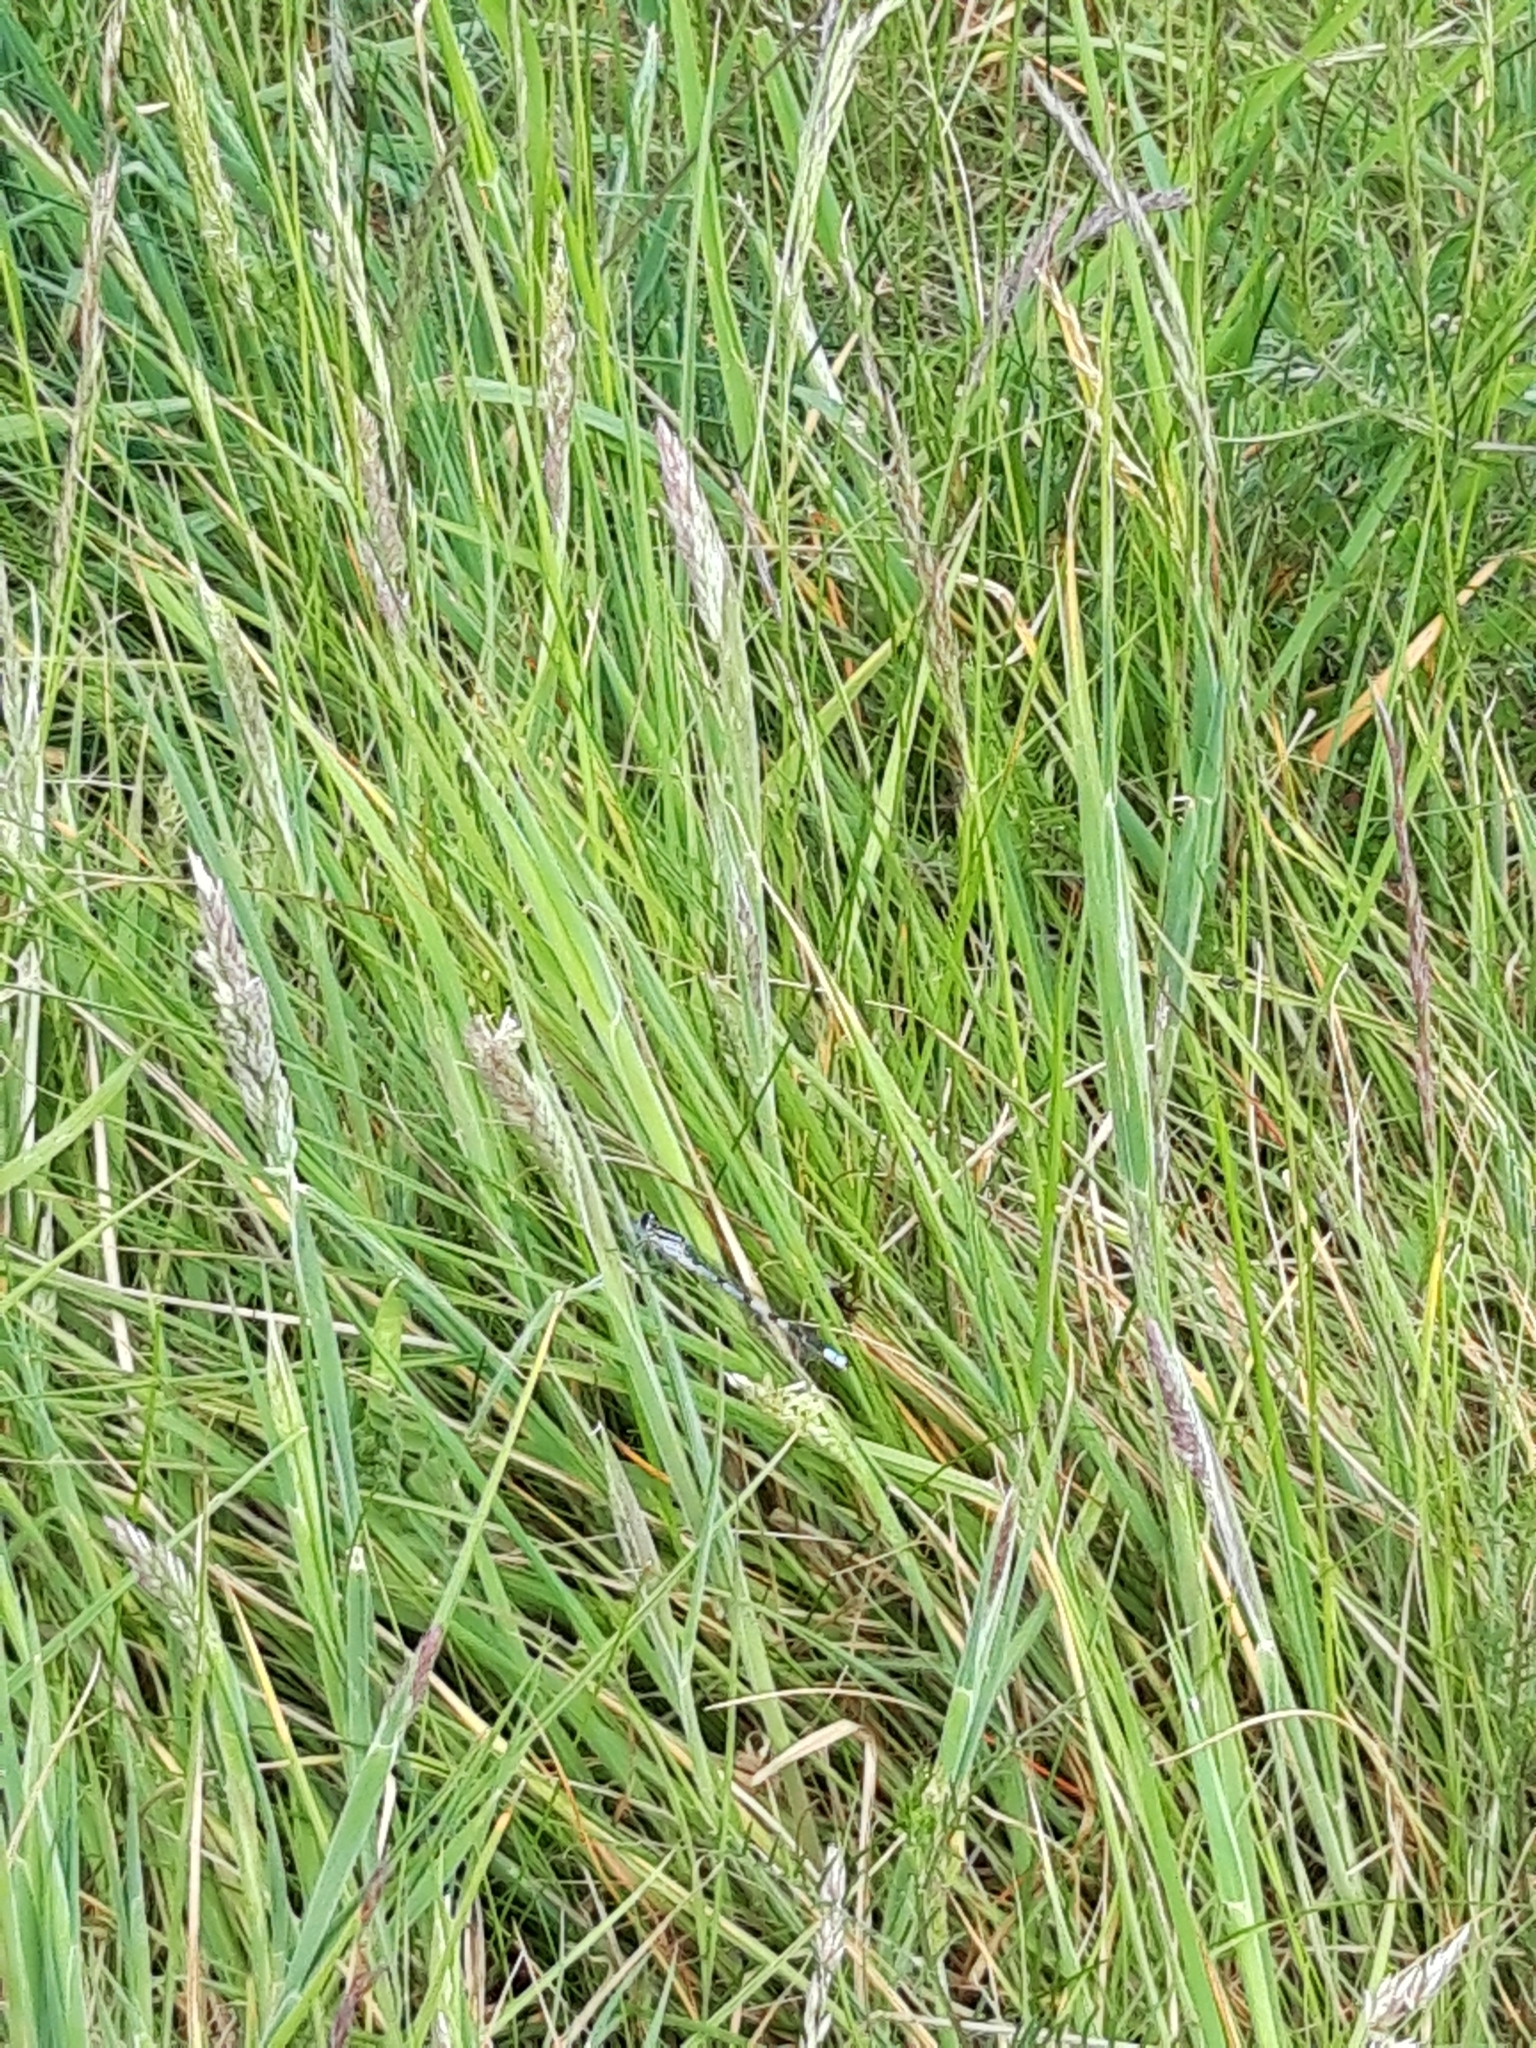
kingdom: Animalia
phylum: Arthropoda
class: Insecta
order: Odonata
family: Coenagrionidae
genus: Enallagma
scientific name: Enallagma cyathigerum
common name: Common blue damselfly
